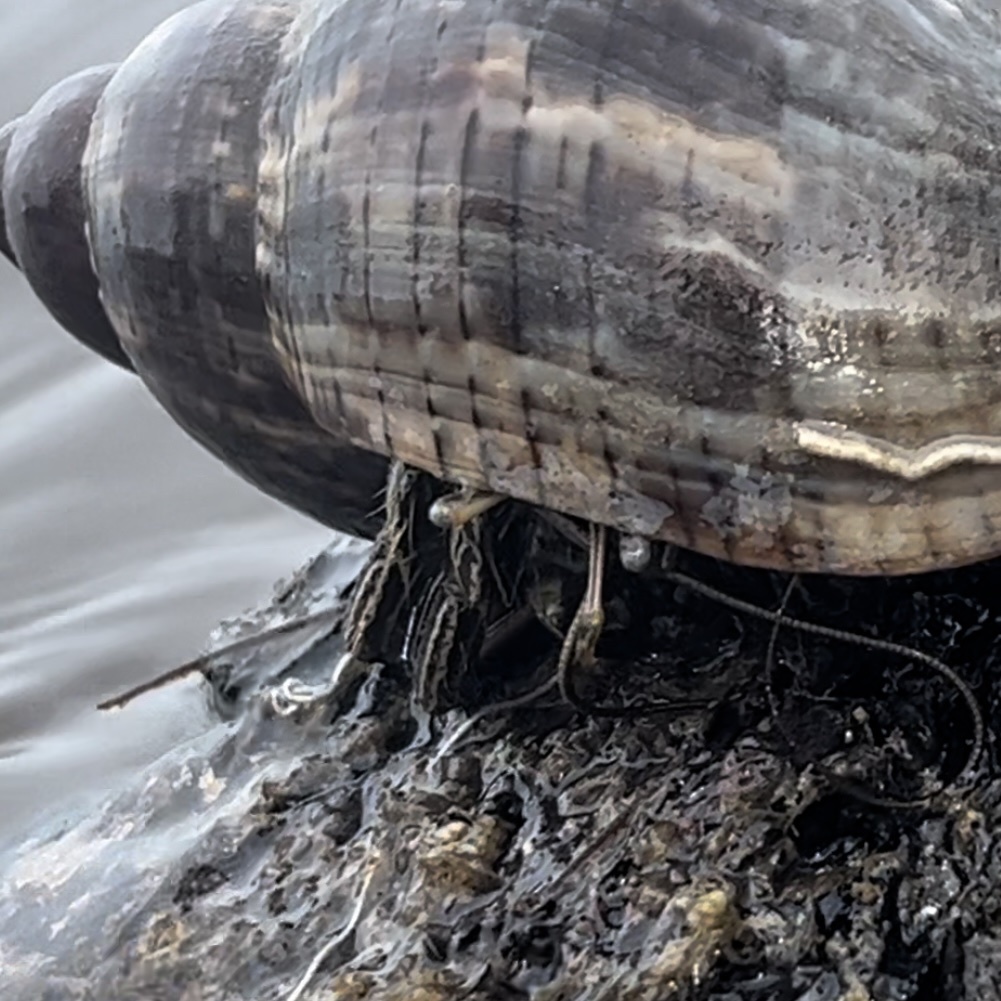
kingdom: Animalia
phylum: Arthropoda
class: Malacostraca
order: Decapoda
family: Diogenidae
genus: Clibanarius
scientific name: Clibanarius vittatus
